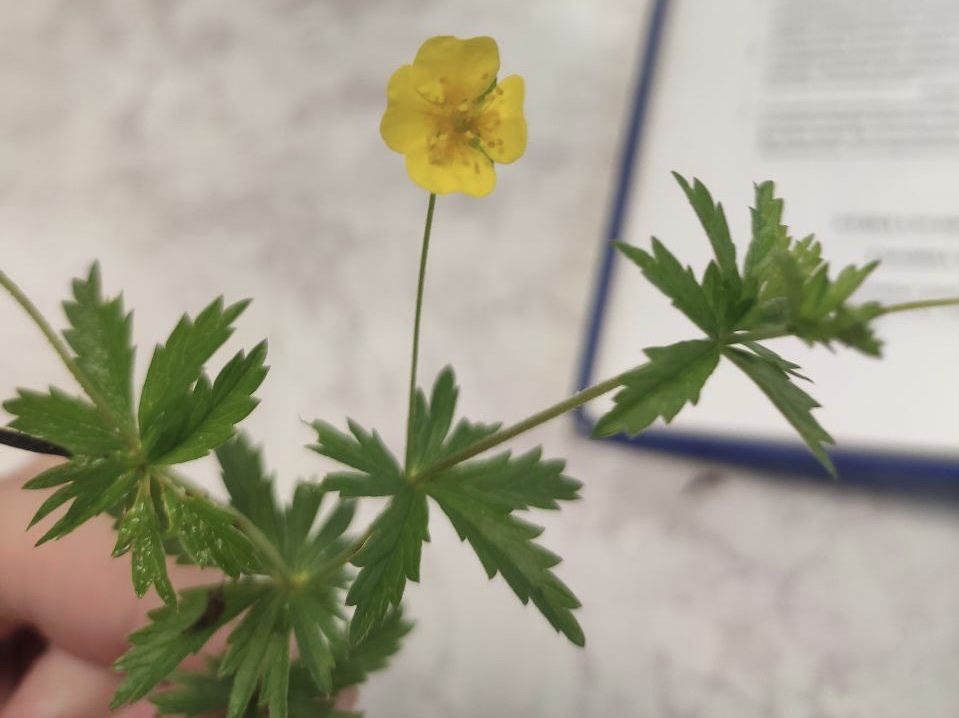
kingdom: Plantae
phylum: Tracheophyta
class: Magnoliopsida
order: Rosales
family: Rosaceae
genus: Potentilla
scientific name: Potentilla erecta
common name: Tormentil
